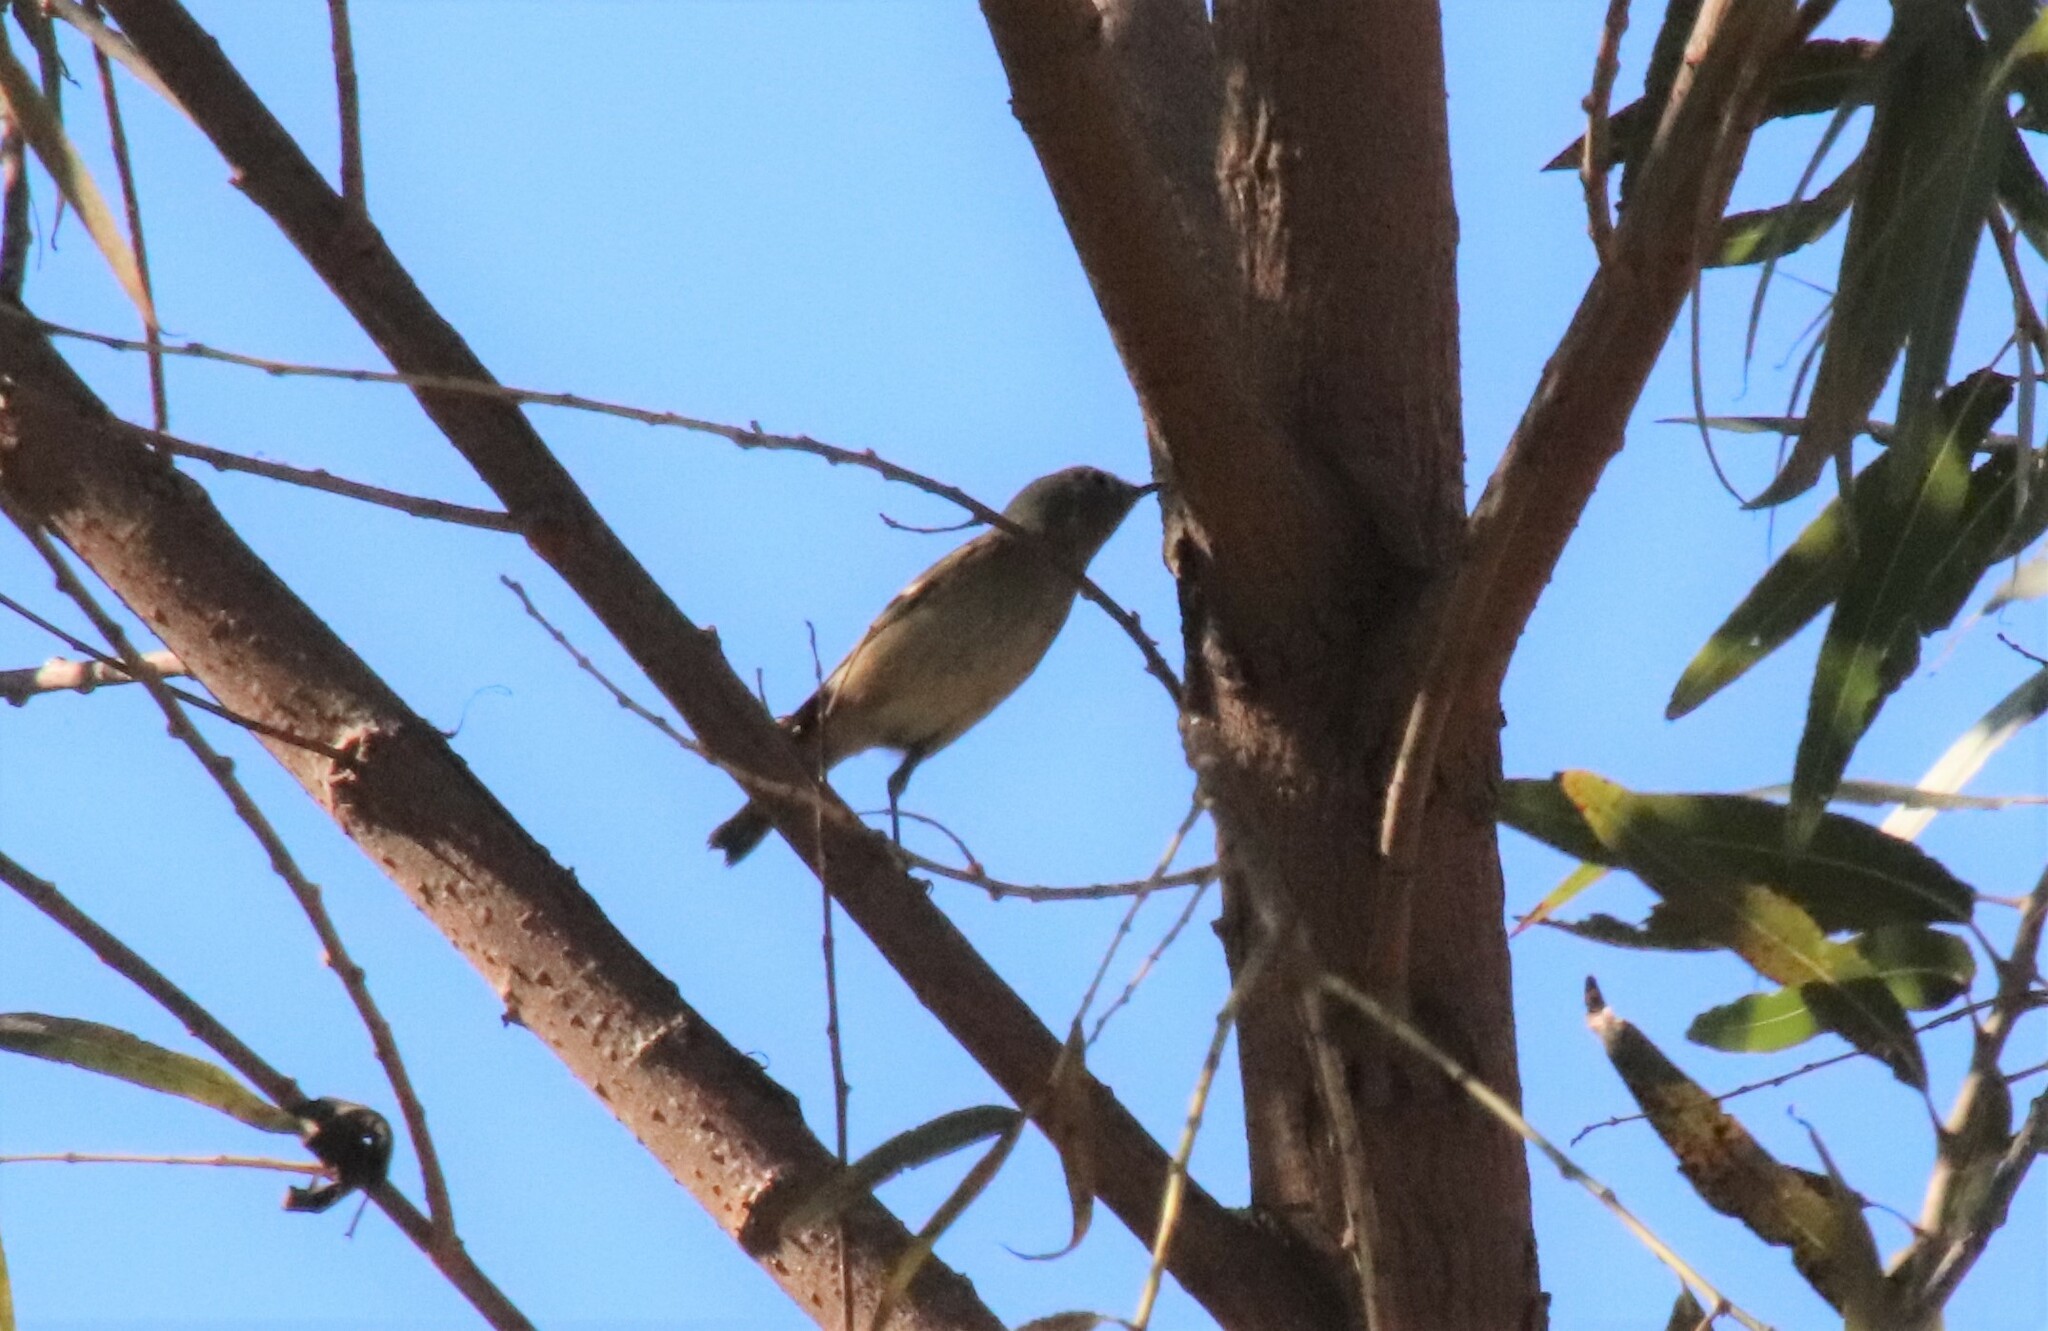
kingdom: Animalia
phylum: Chordata
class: Aves
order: Passeriformes
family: Regulidae
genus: Regulus
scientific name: Regulus calendula
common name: Ruby-crowned kinglet
